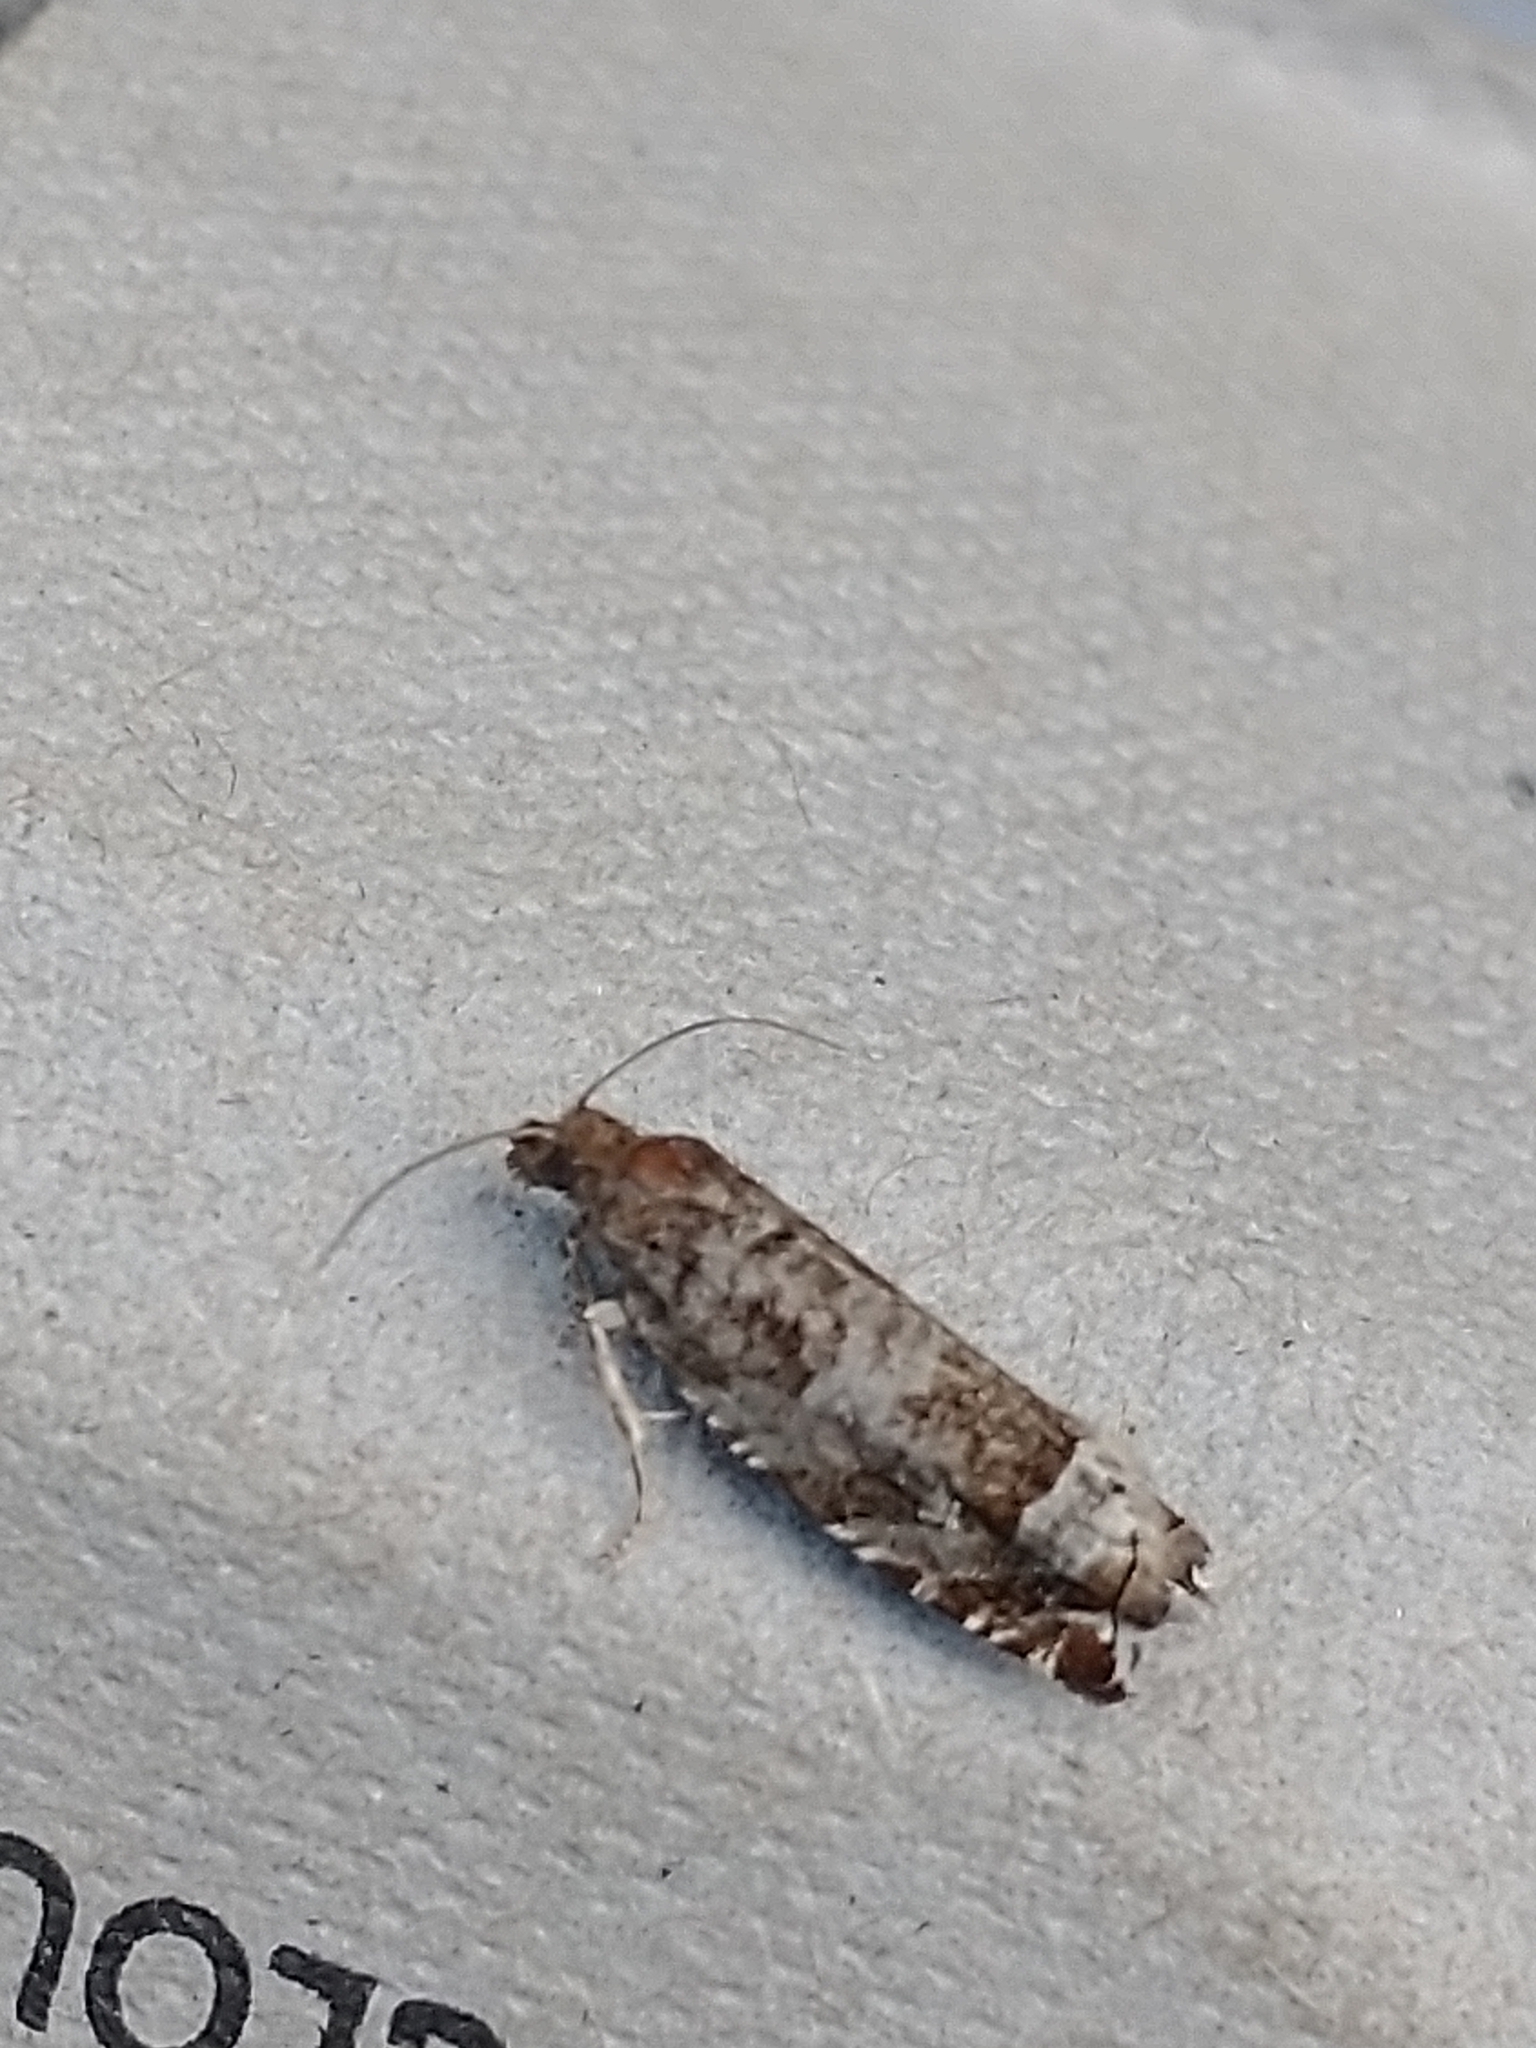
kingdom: Animalia
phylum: Arthropoda
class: Insecta
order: Lepidoptera
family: Tortricidae
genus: Ancylis
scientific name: Ancylis achatana
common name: Triangle-marked roller
